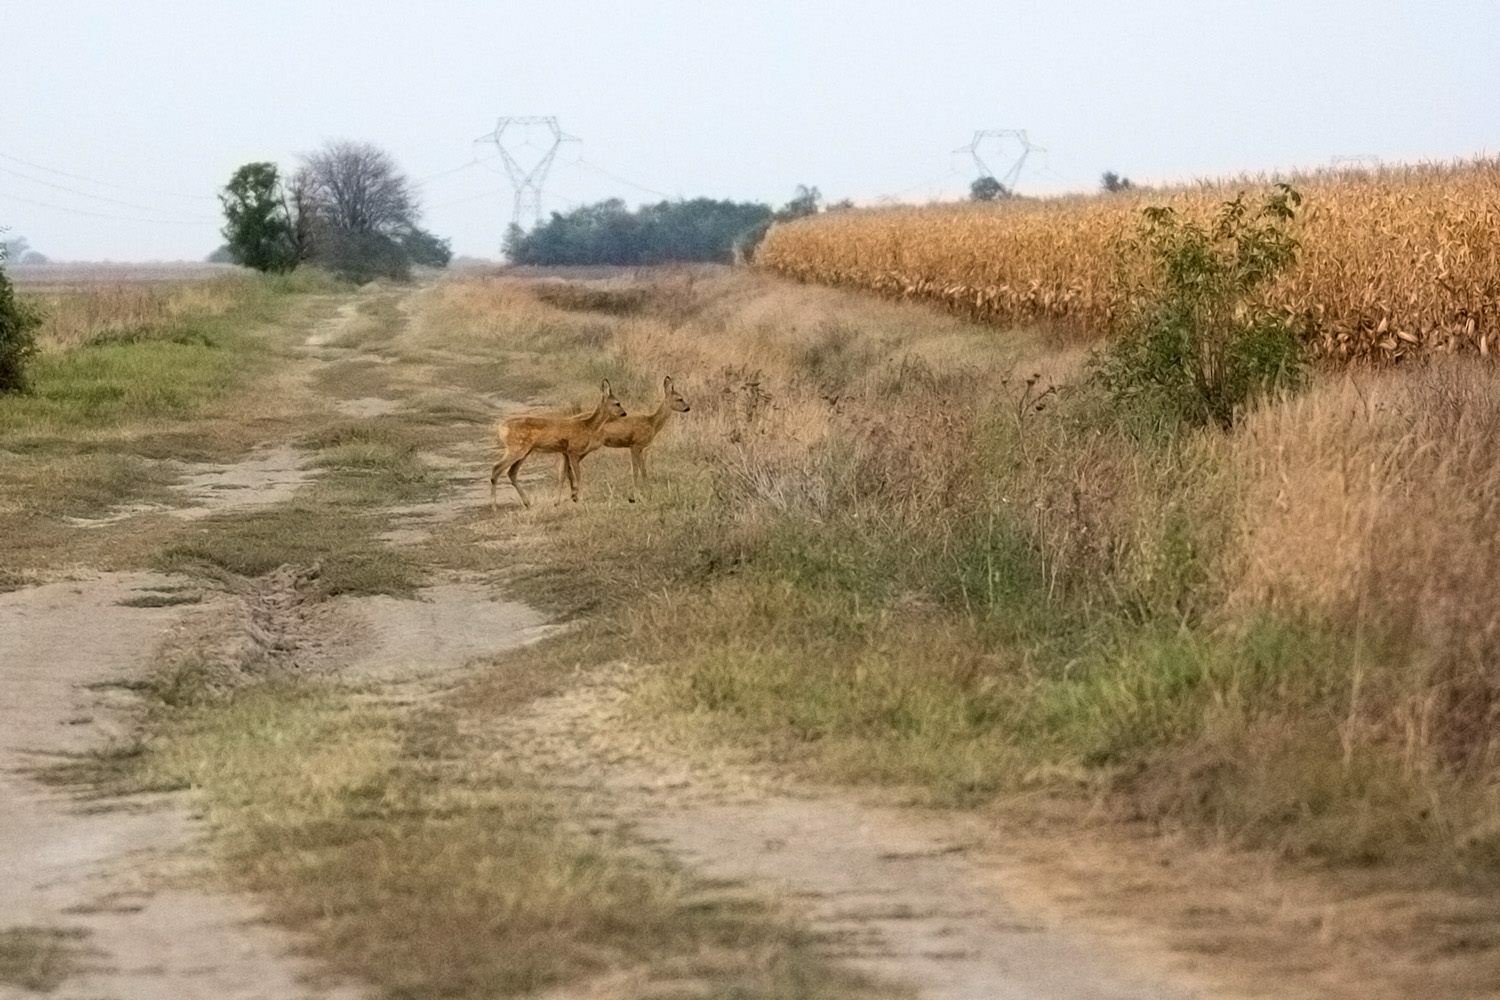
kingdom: Animalia
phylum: Chordata
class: Mammalia
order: Artiodactyla
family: Cervidae
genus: Capreolus
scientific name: Capreolus capreolus
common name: Western roe deer
